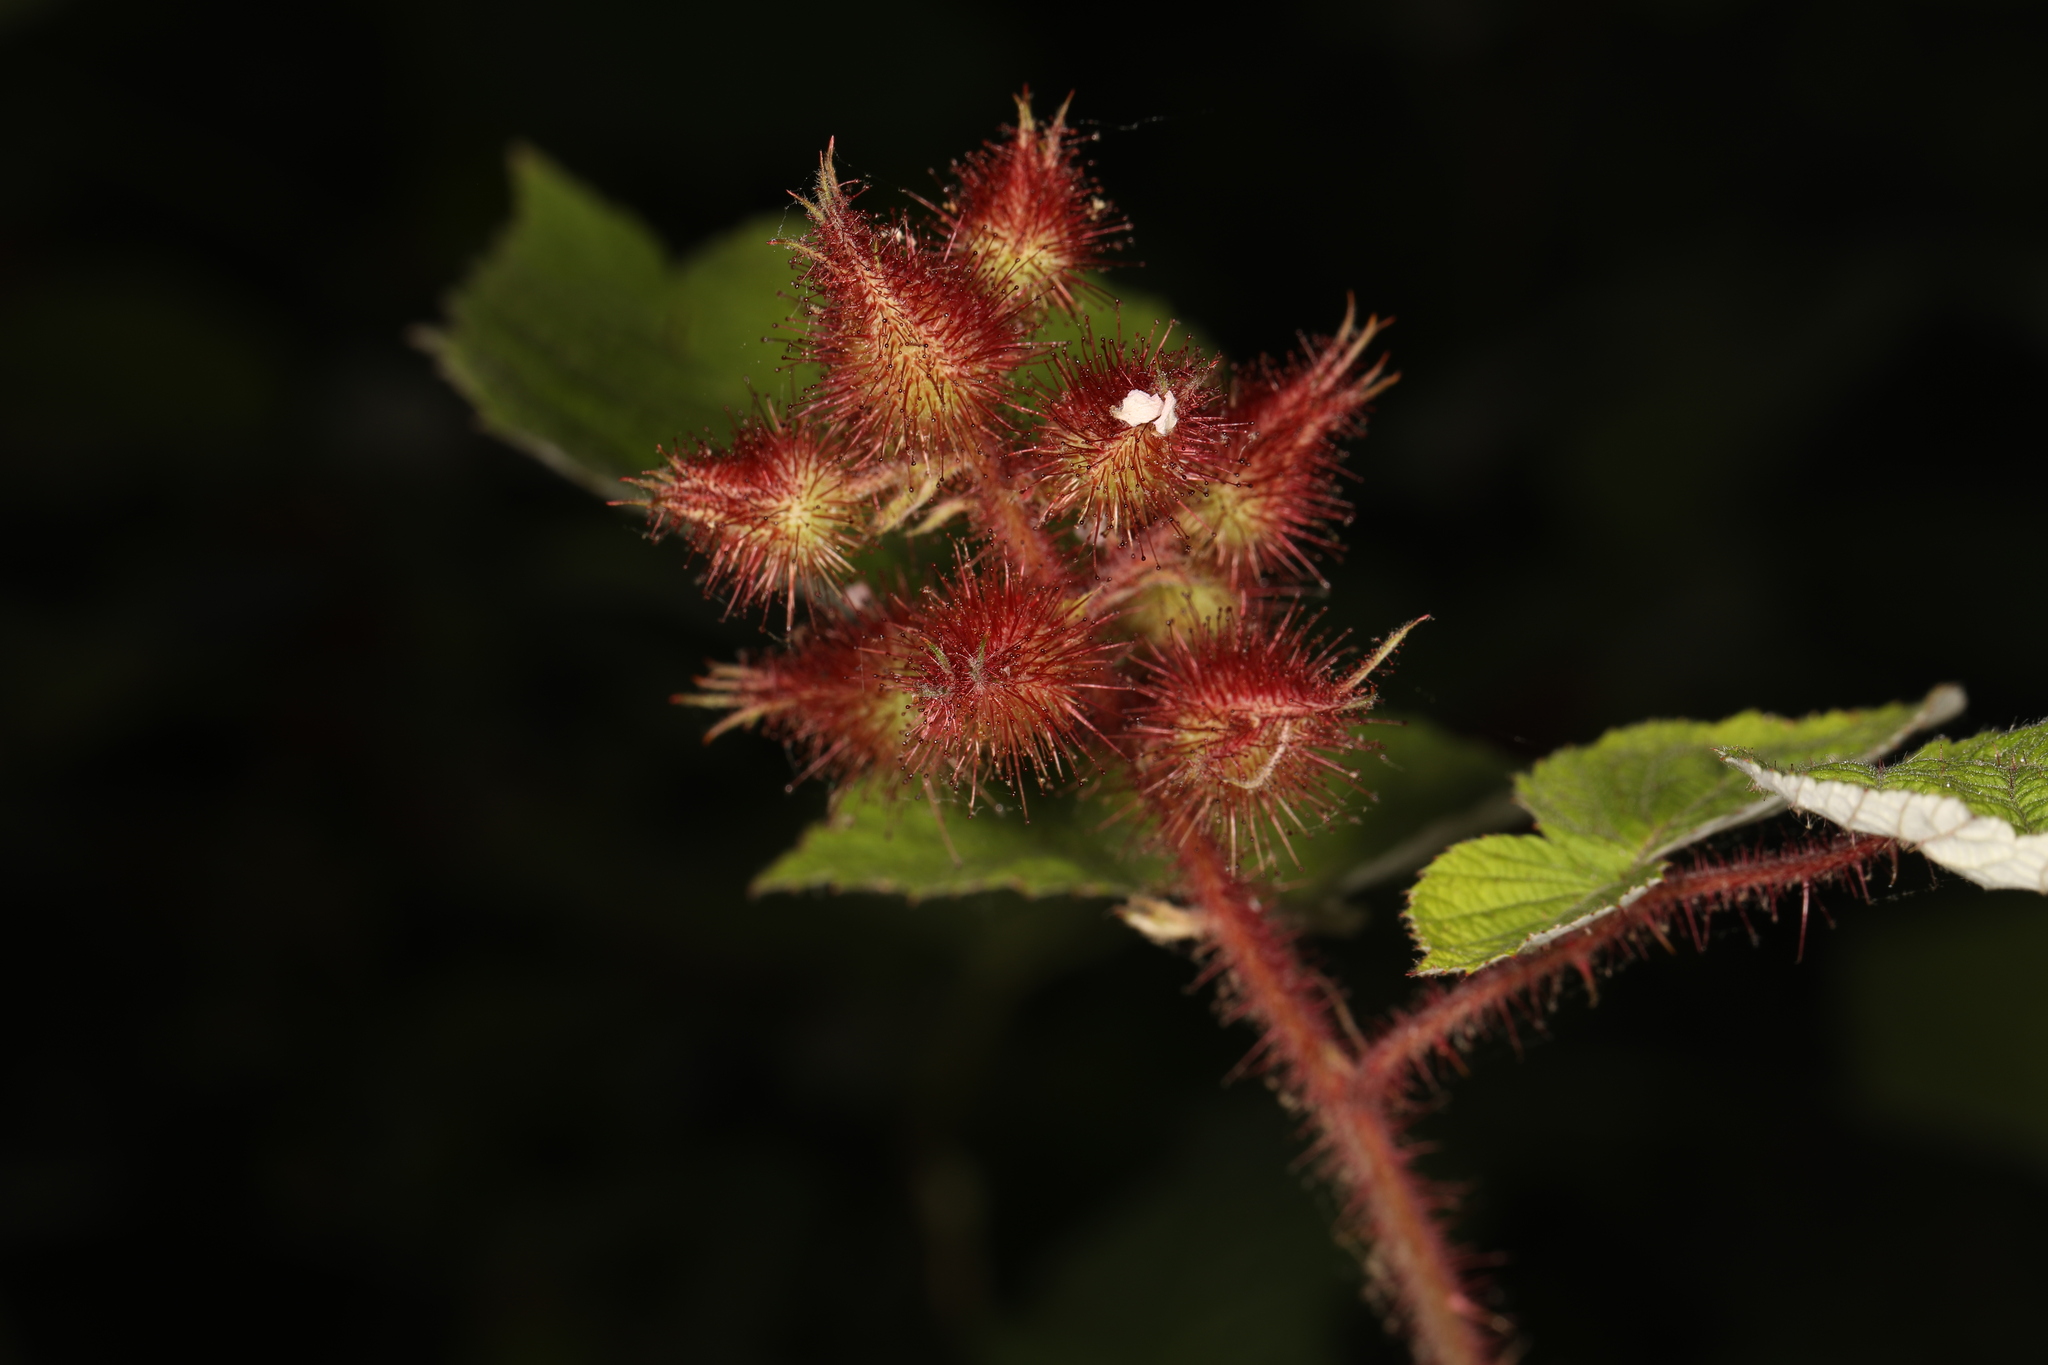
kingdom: Plantae
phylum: Tracheophyta
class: Magnoliopsida
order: Rosales
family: Rosaceae
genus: Rubus
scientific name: Rubus phoenicolasius
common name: Japanese wineberry
